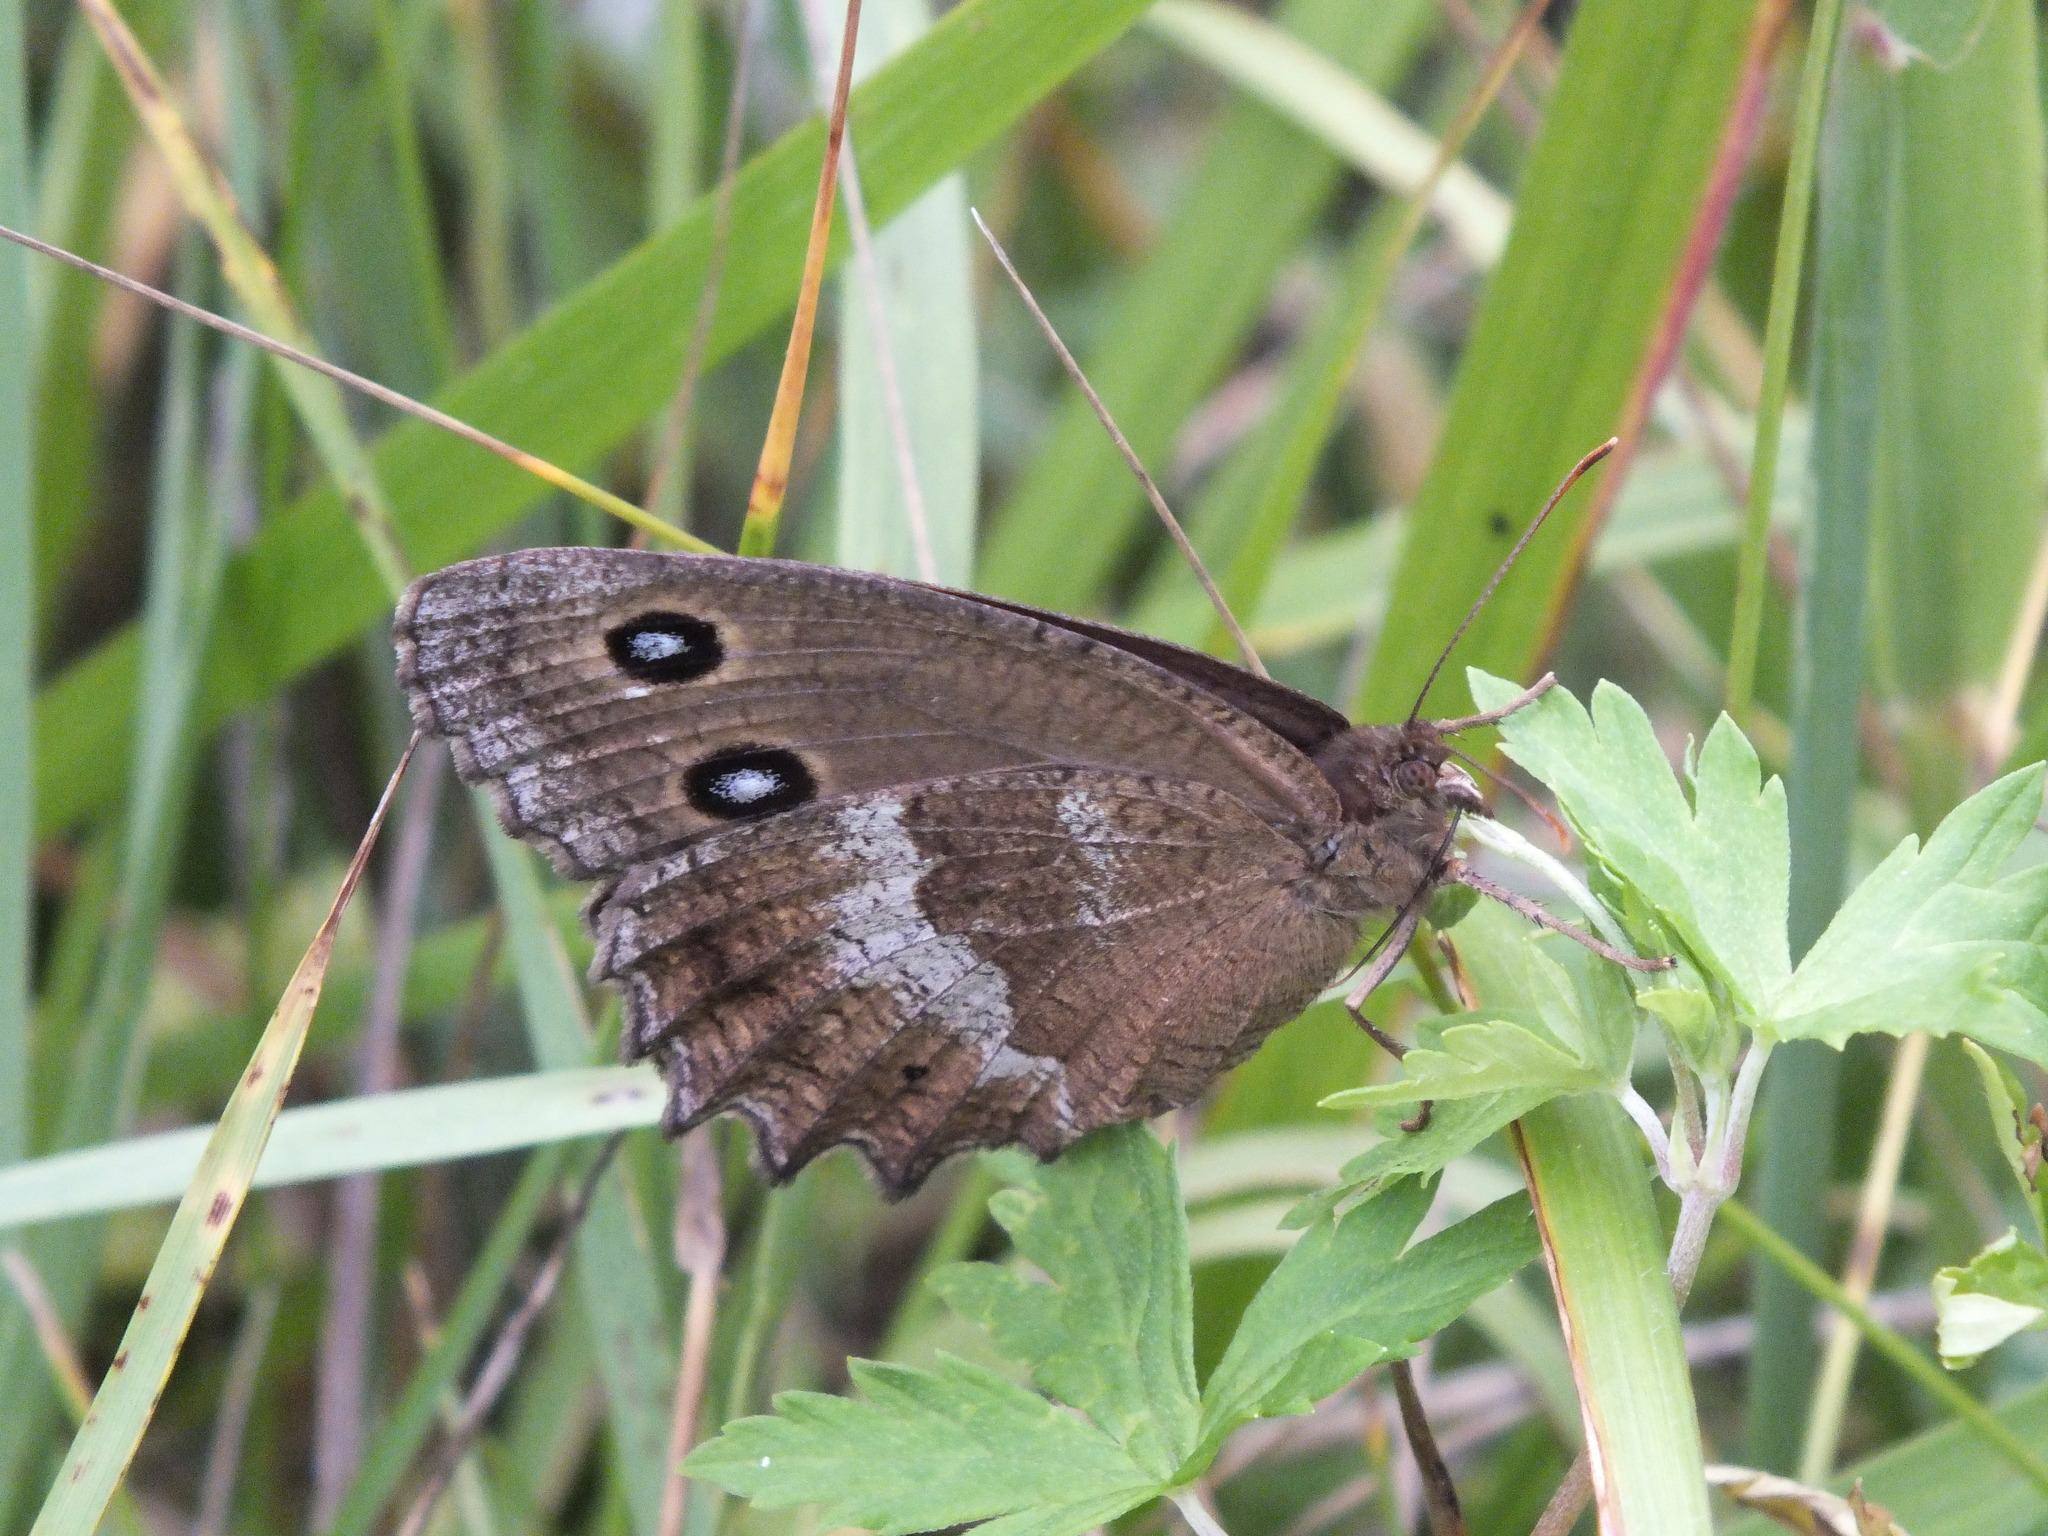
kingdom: Animalia
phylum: Arthropoda
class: Insecta
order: Lepidoptera
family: Nymphalidae
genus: Minois
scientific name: Minois dryas
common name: Dryad
